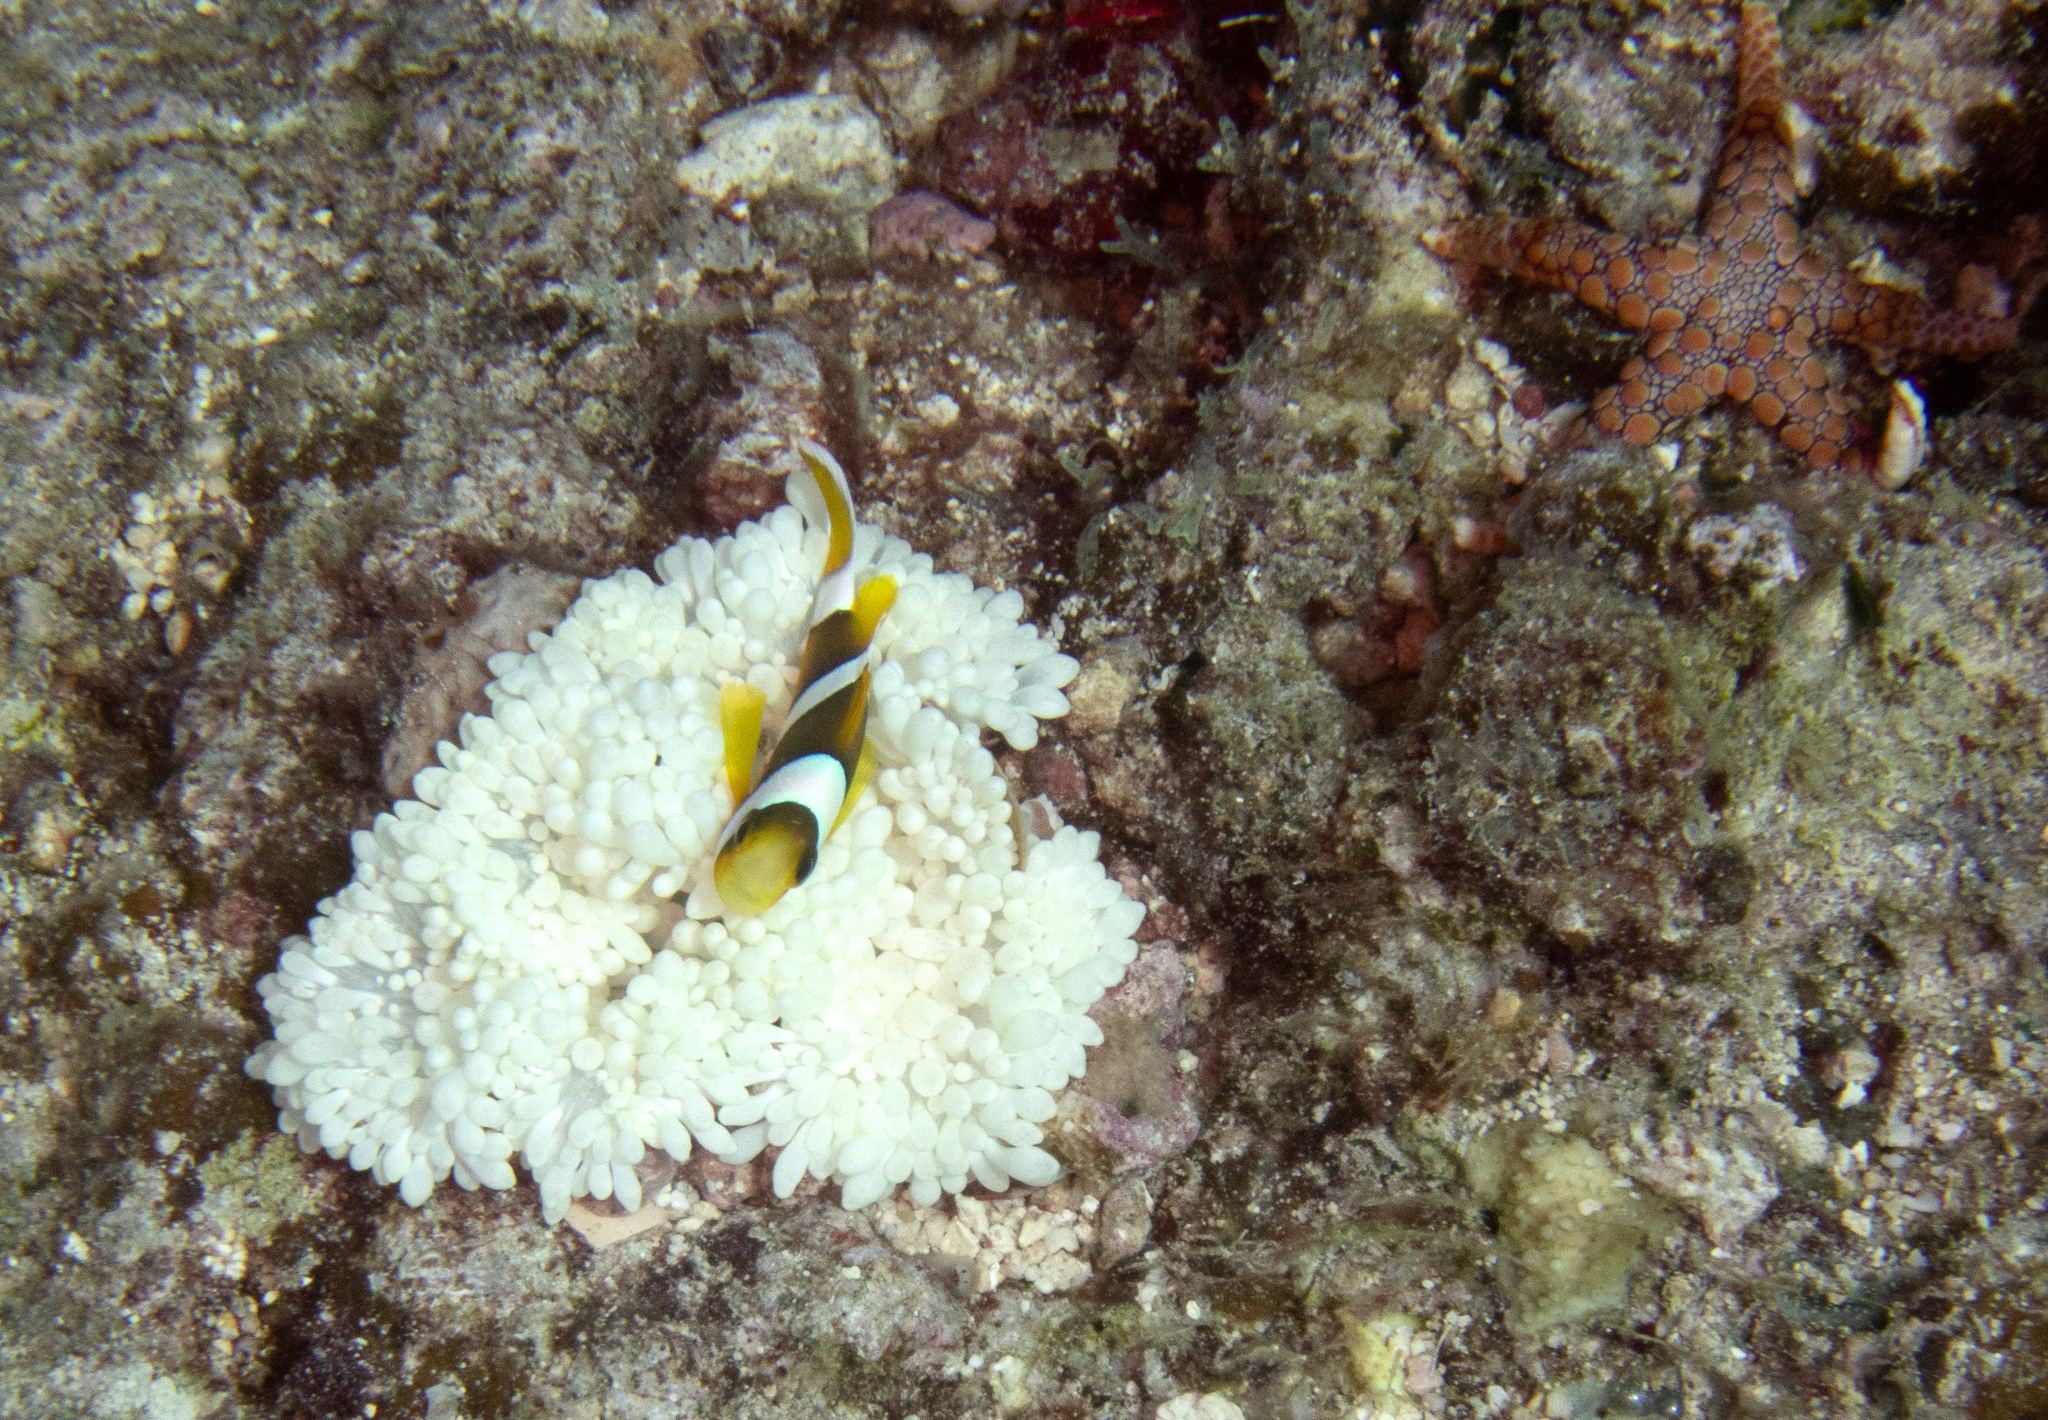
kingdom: Animalia
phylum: Chordata
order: Perciformes
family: Pomacentridae
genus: Amphiprion
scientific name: Amphiprion chrysopterus
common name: Orange-fin anemonefish
